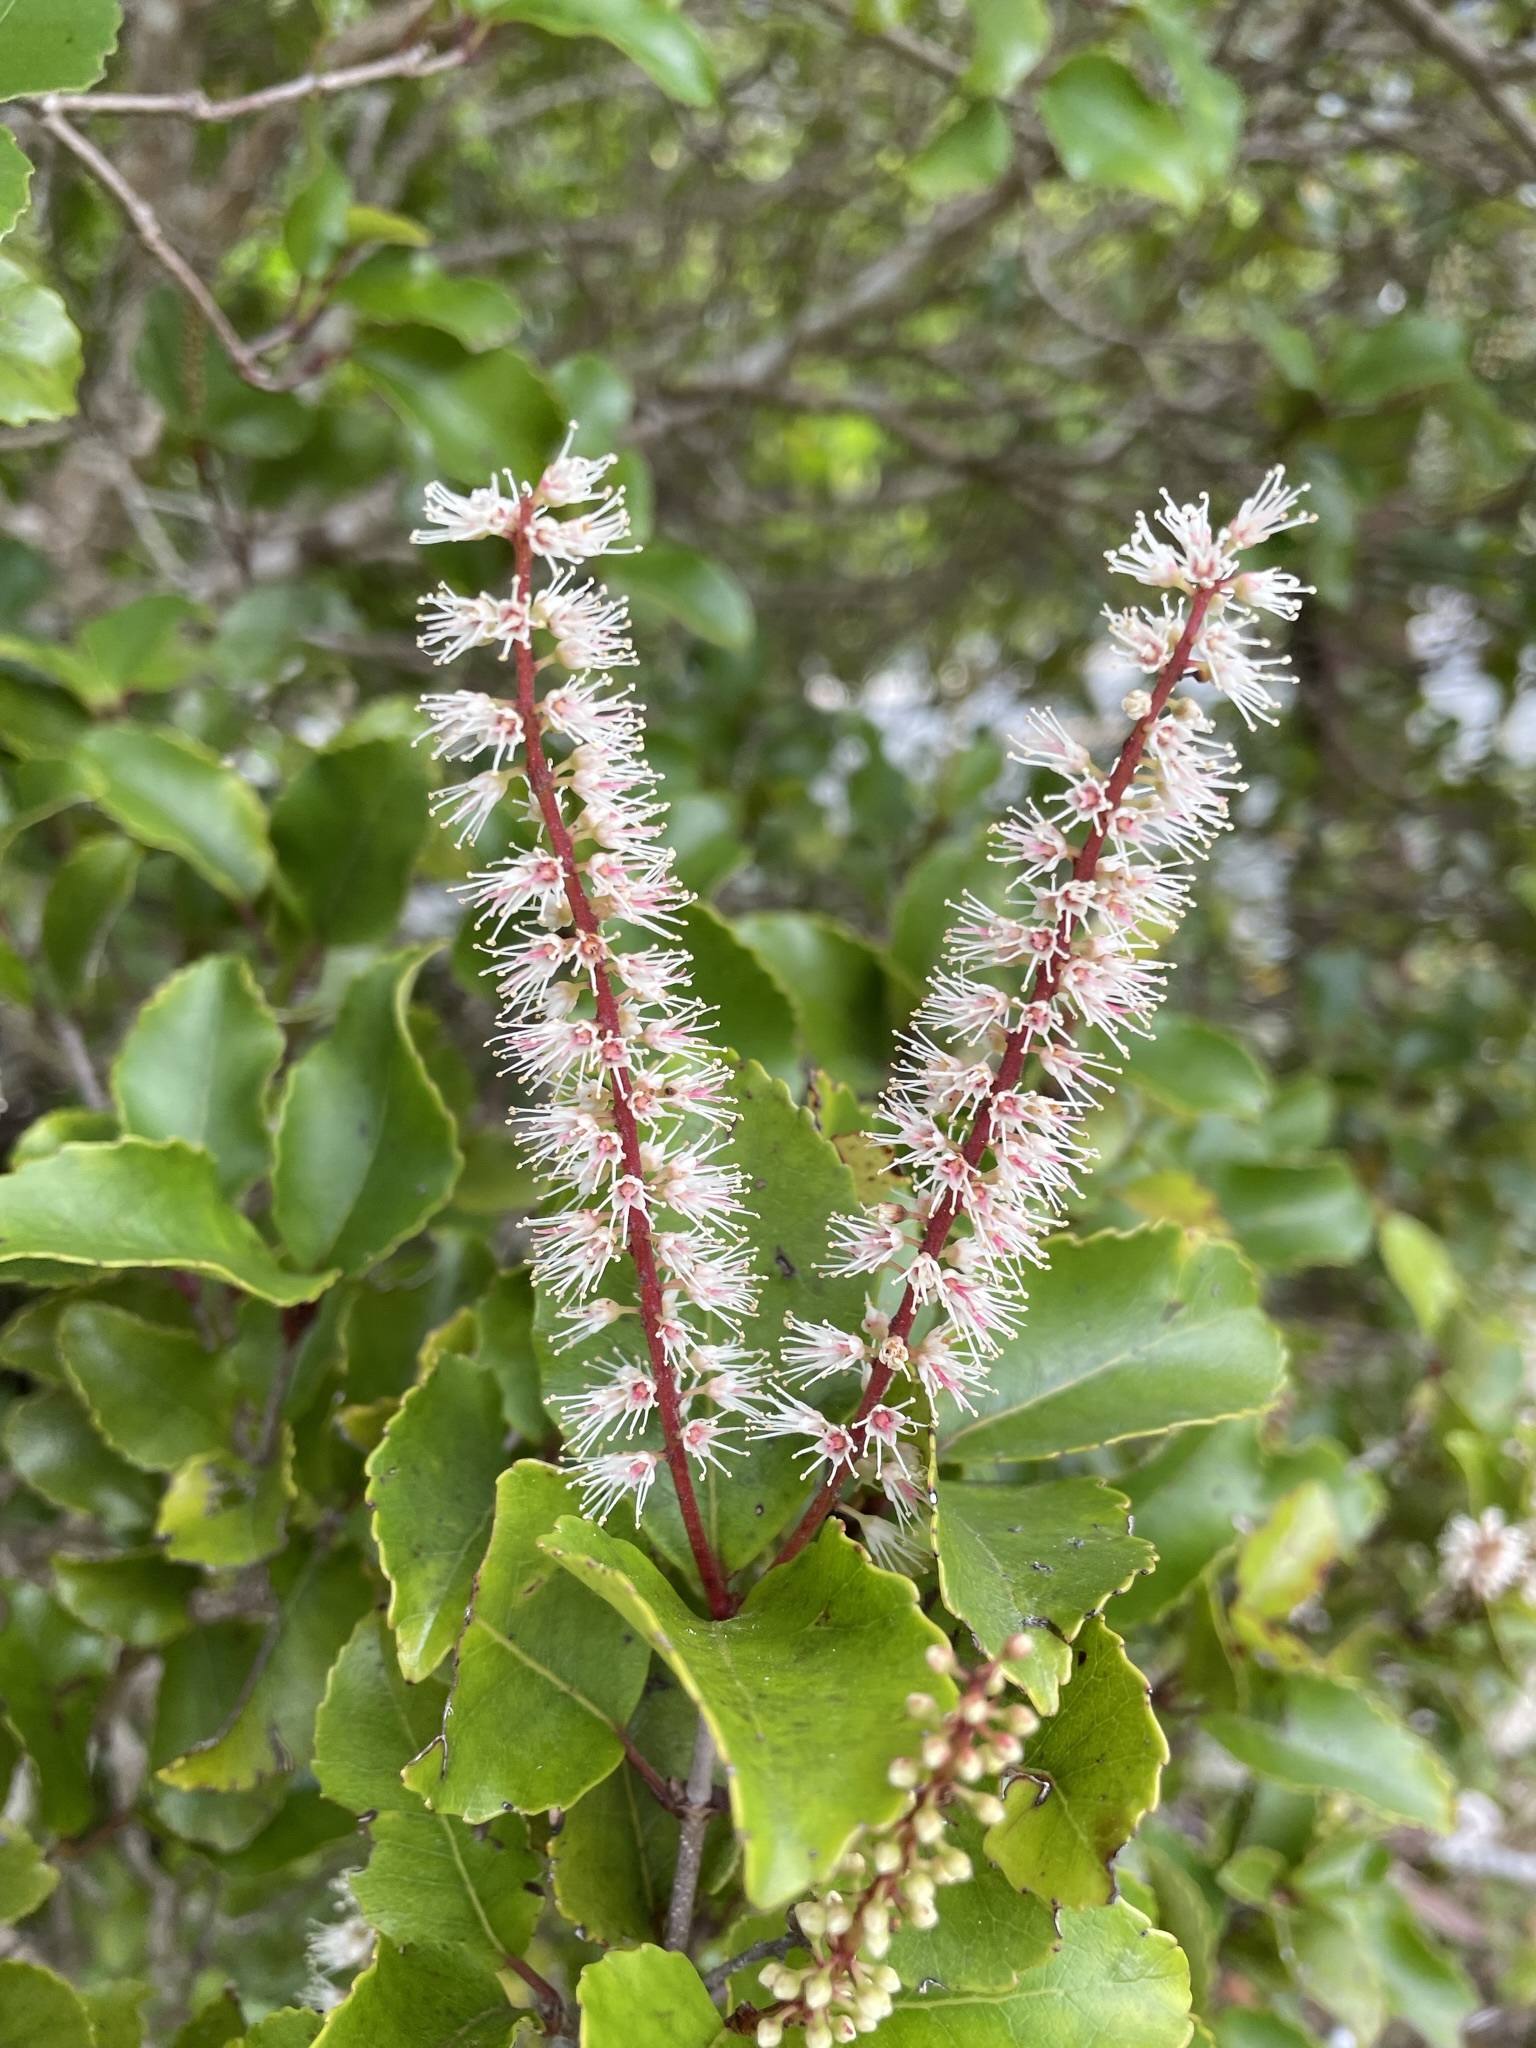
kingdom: Plantae
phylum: Tracheophyta
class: Magnoliopsida
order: Oxalidales
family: Cunoniaceae
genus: Pterophylla
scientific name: Pterophylla racemosa
